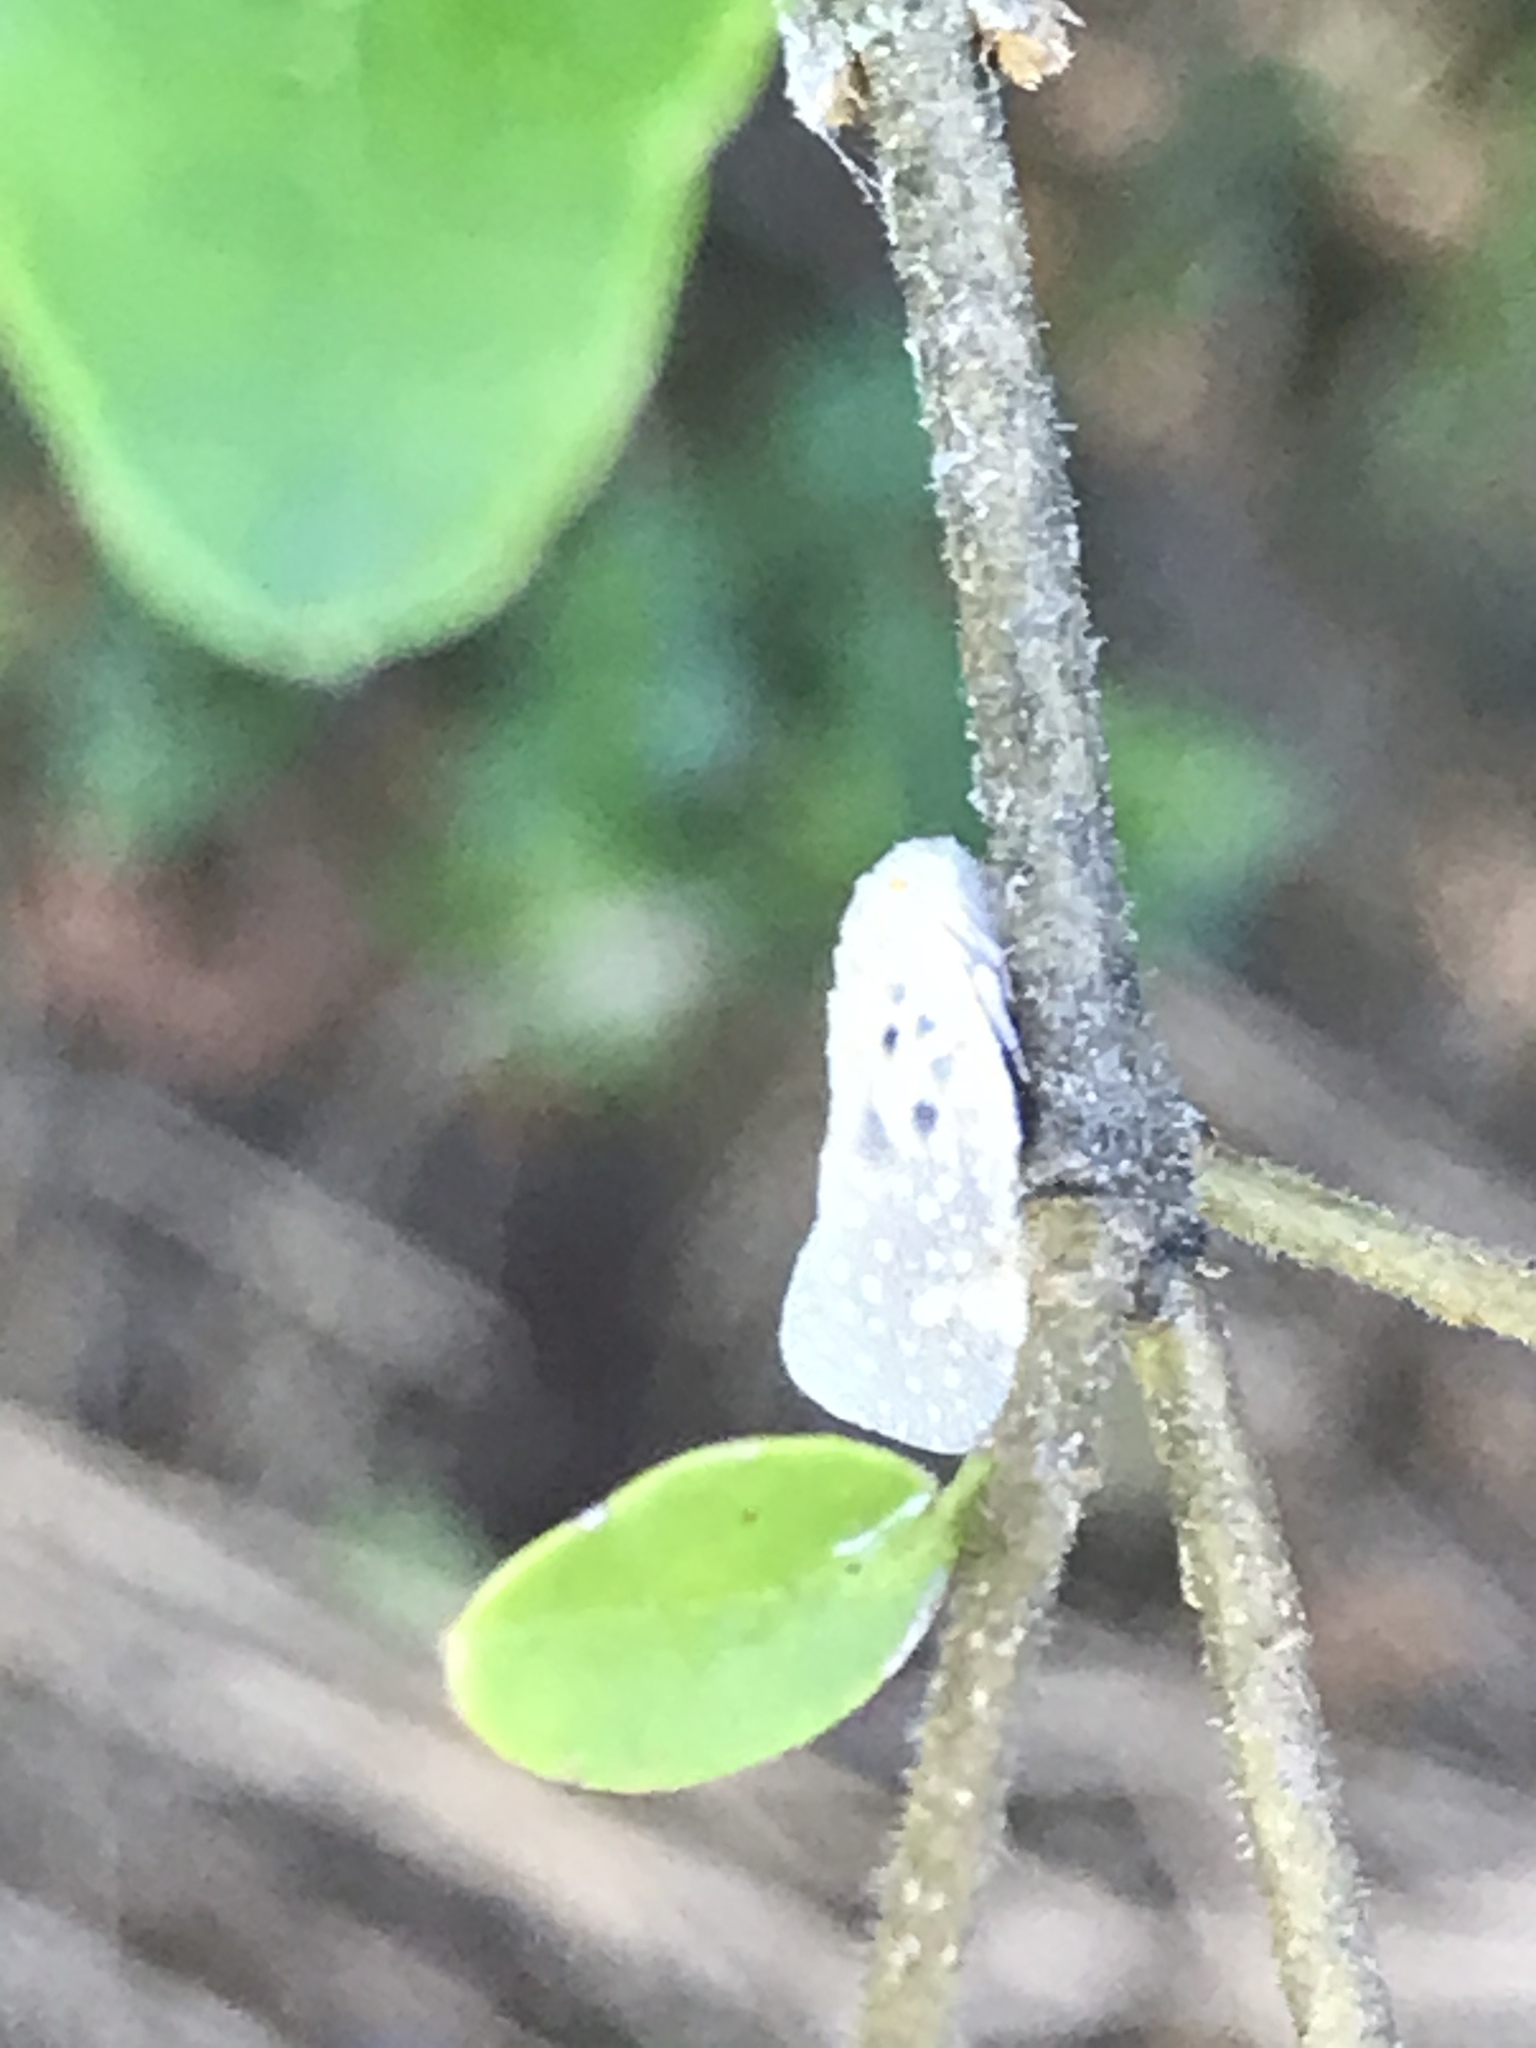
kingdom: Animalia
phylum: Arthropoda
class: Insecta
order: Hemiptera
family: Flatidae
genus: Metcalfa
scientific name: Metcalfa pruinosa
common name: Citrus flatid planthopper
